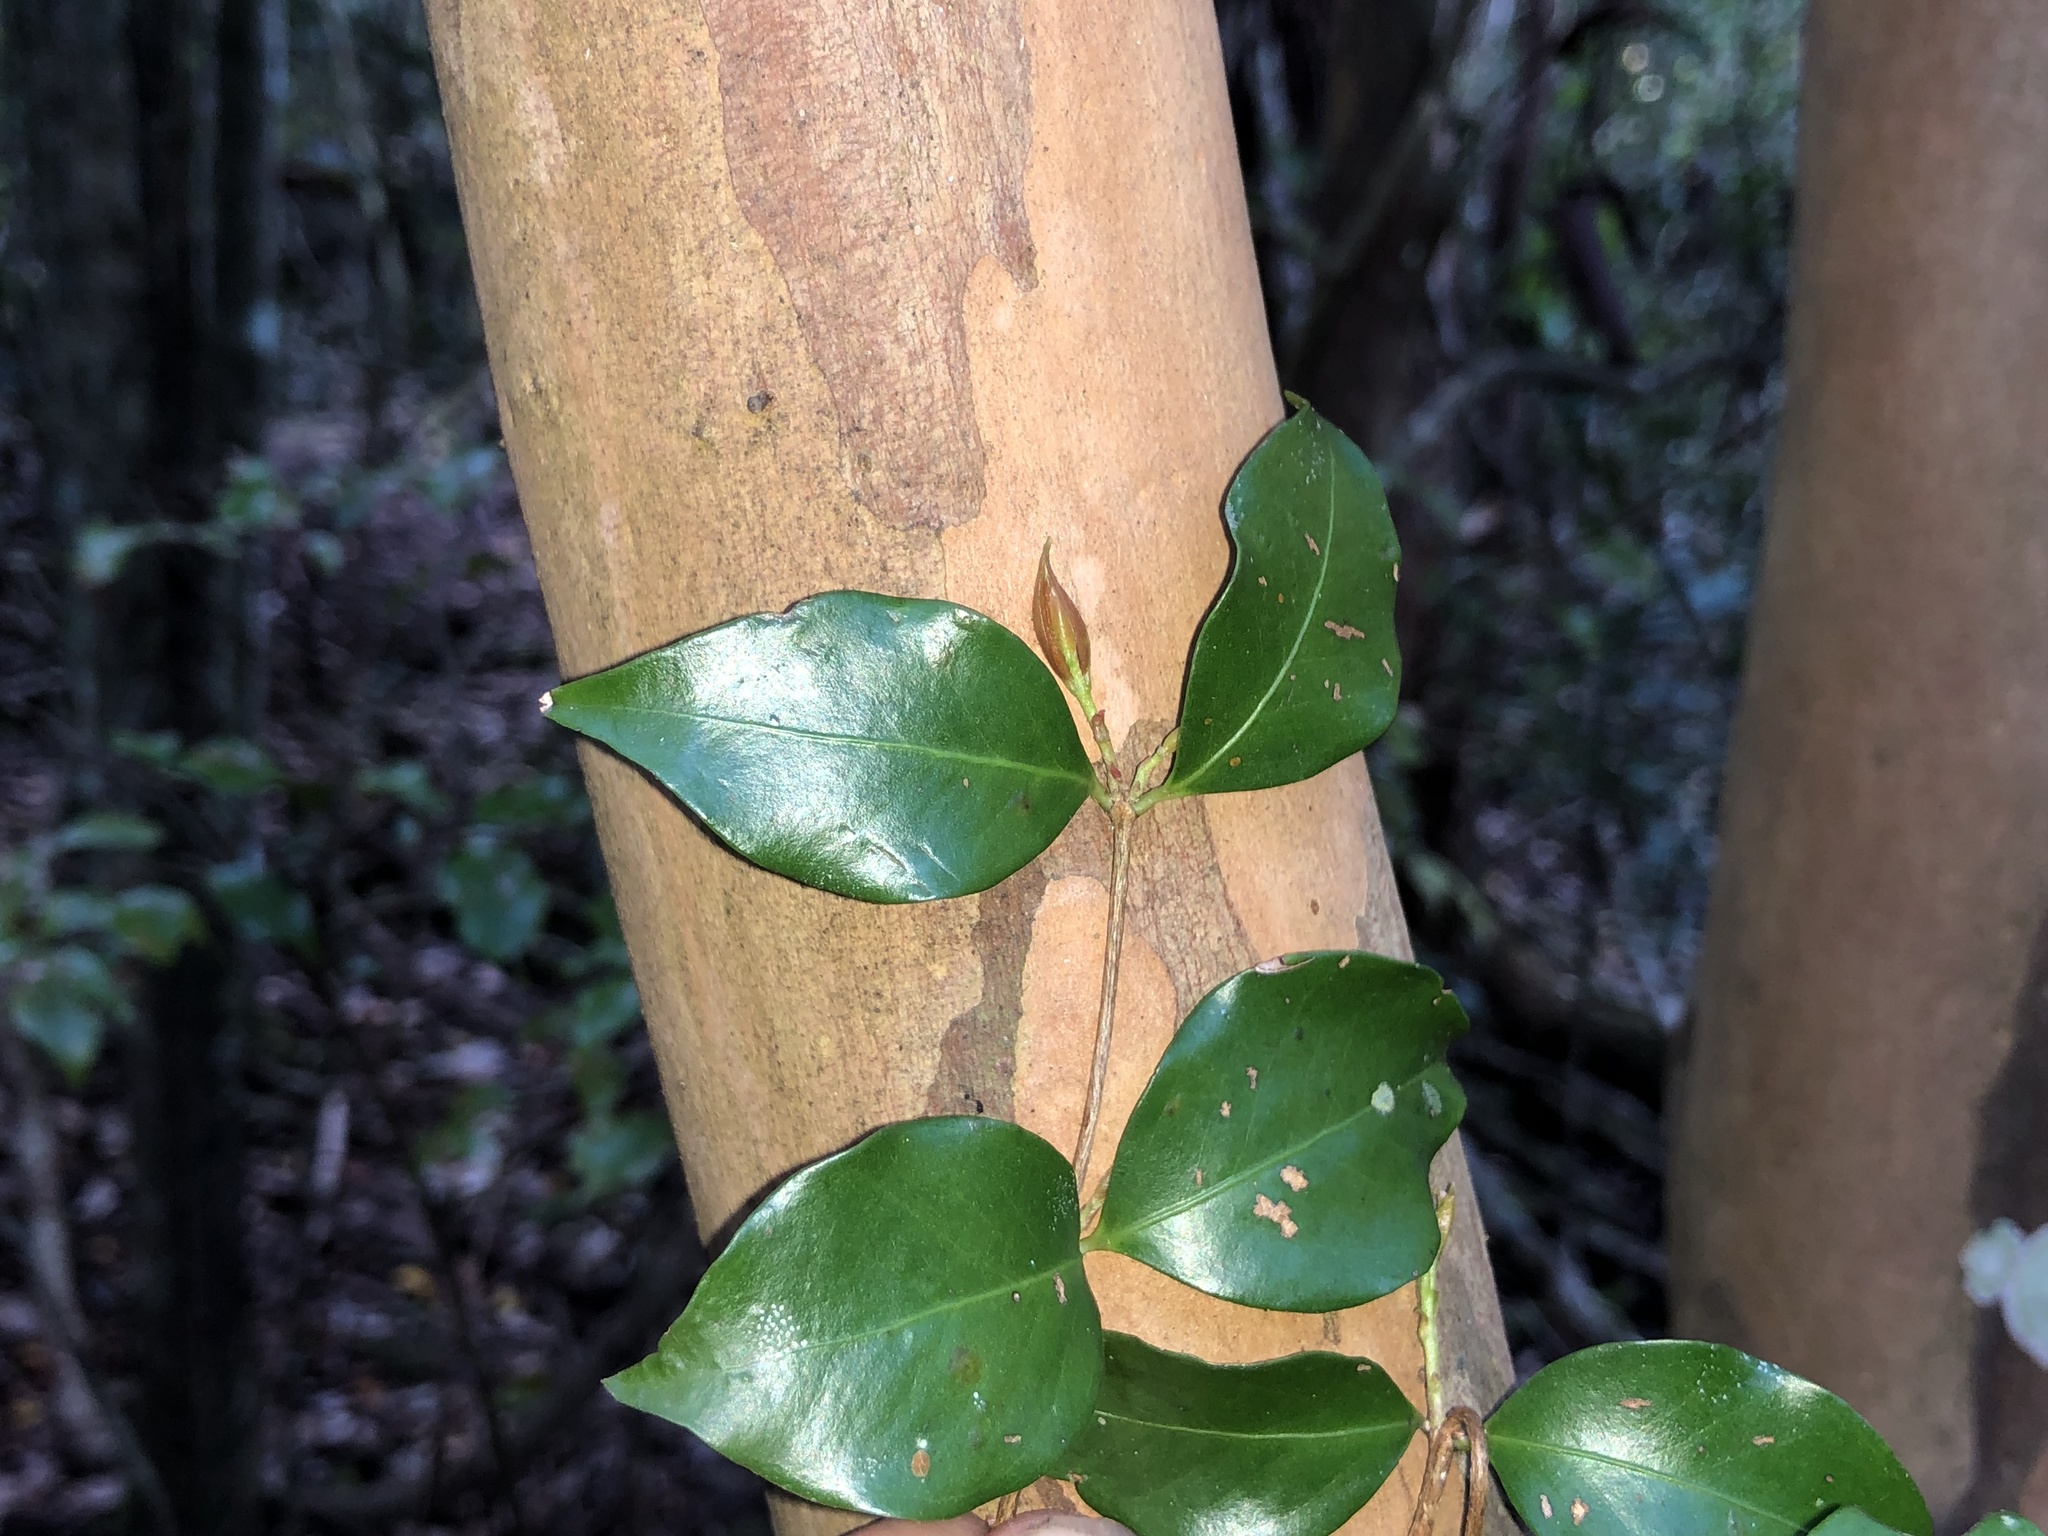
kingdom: Plantae
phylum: Tracheophyta
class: Magnoliopsida
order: Myrtales
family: Myrtaceae
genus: Gossia
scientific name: Gossia acmenoides
